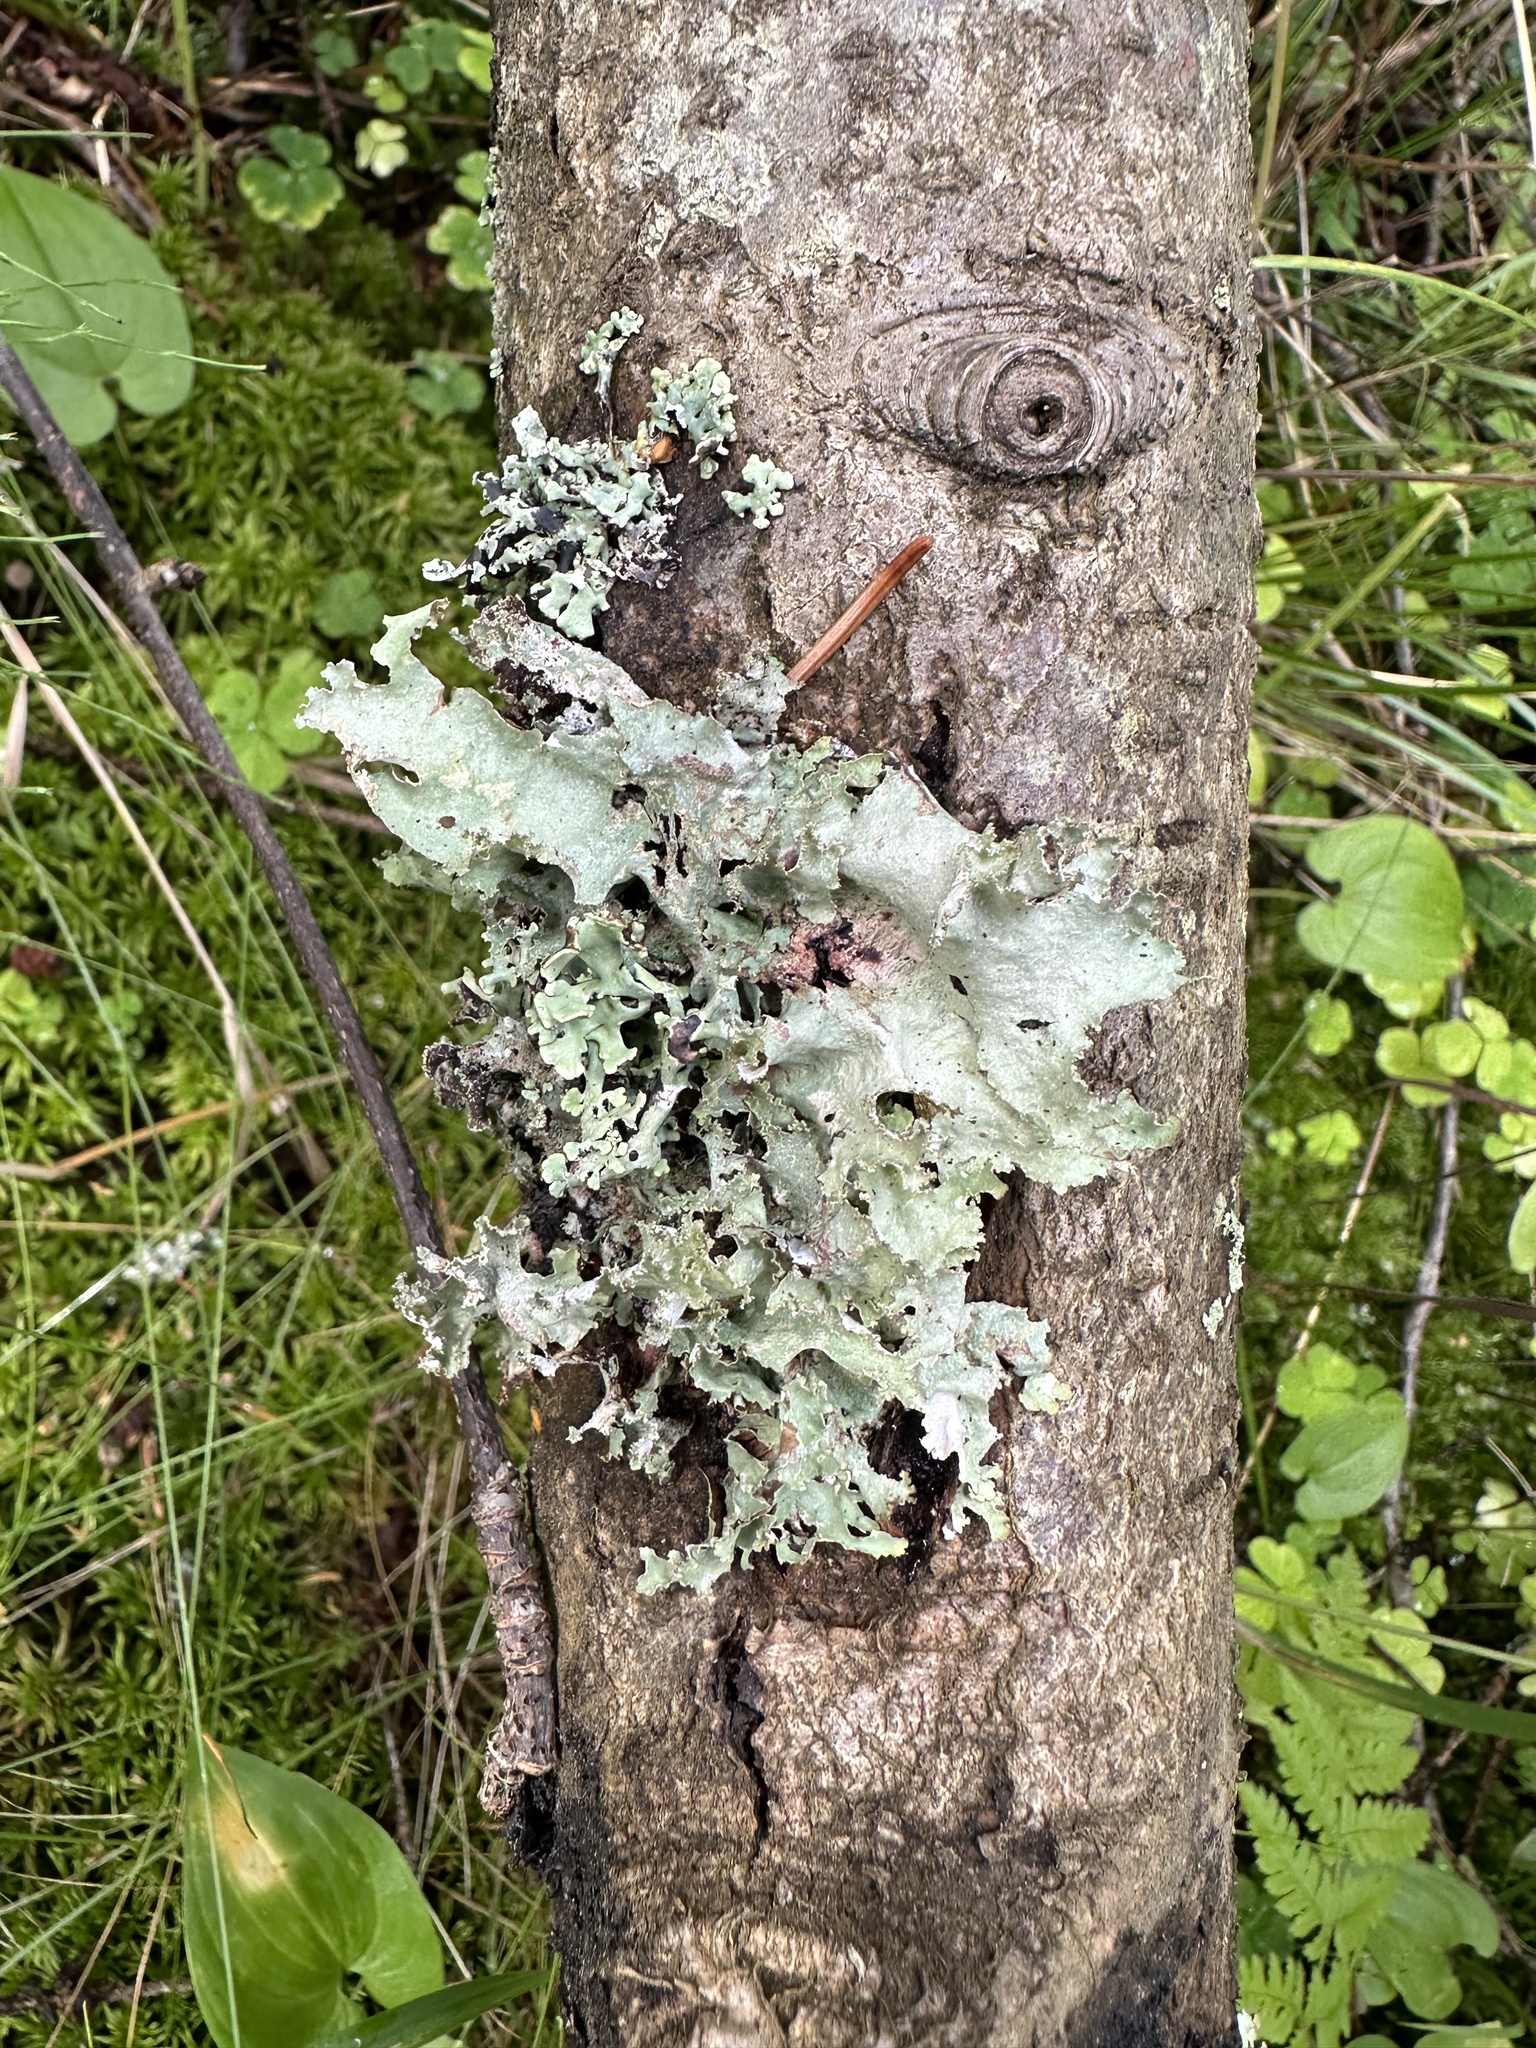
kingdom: Fungi
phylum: Ascomycota
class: Lecanoromycetes
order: Lecanorales
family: Parmeliaceae
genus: Platismatia
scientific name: Platismatia glauca
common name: Varied rag lichen
